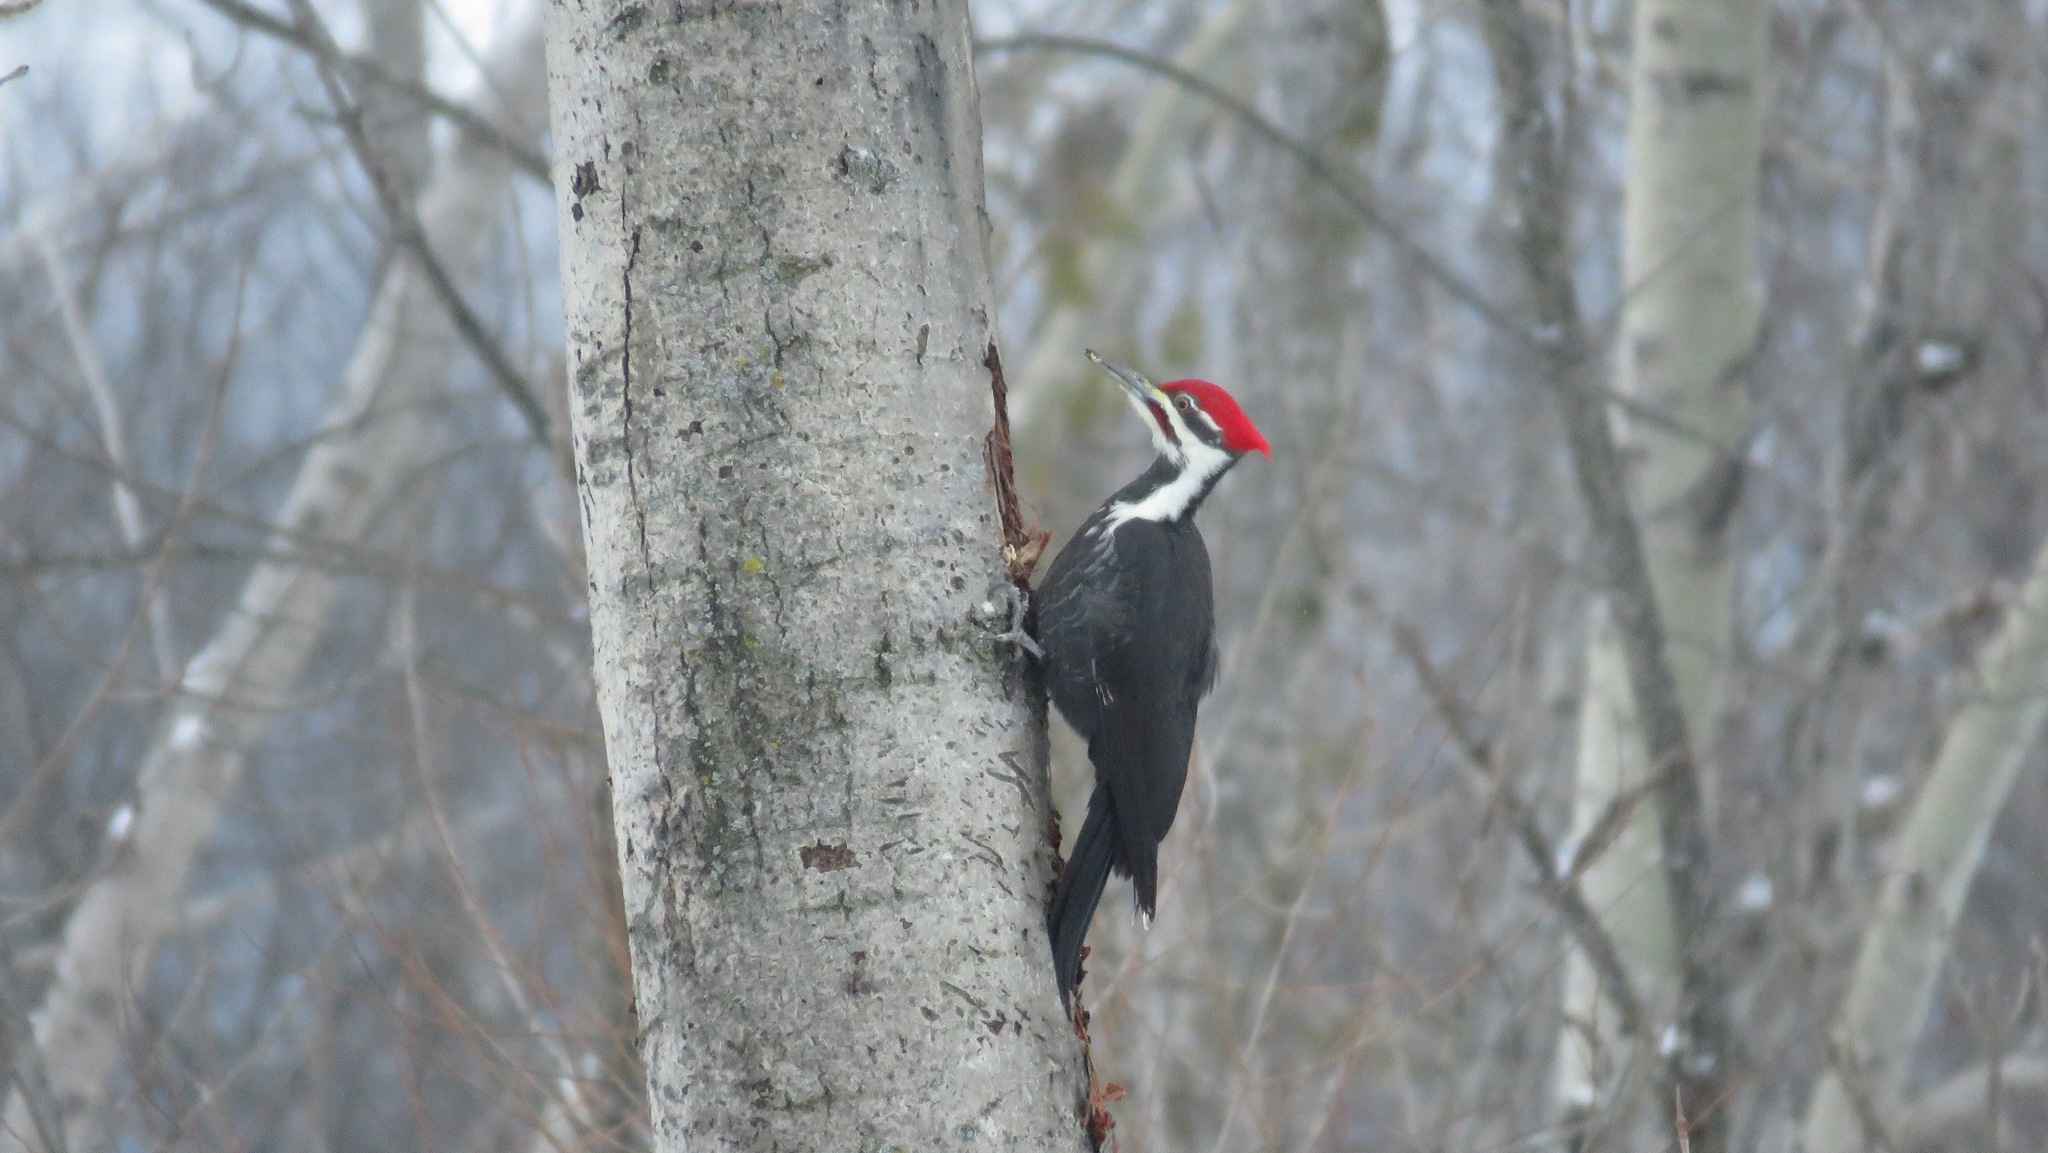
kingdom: Animalia
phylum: Chordata
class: Aves
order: Piciformes
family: Picidae
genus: Dryocopus
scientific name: Dryocopus pileatus
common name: Pileated woodpecker
